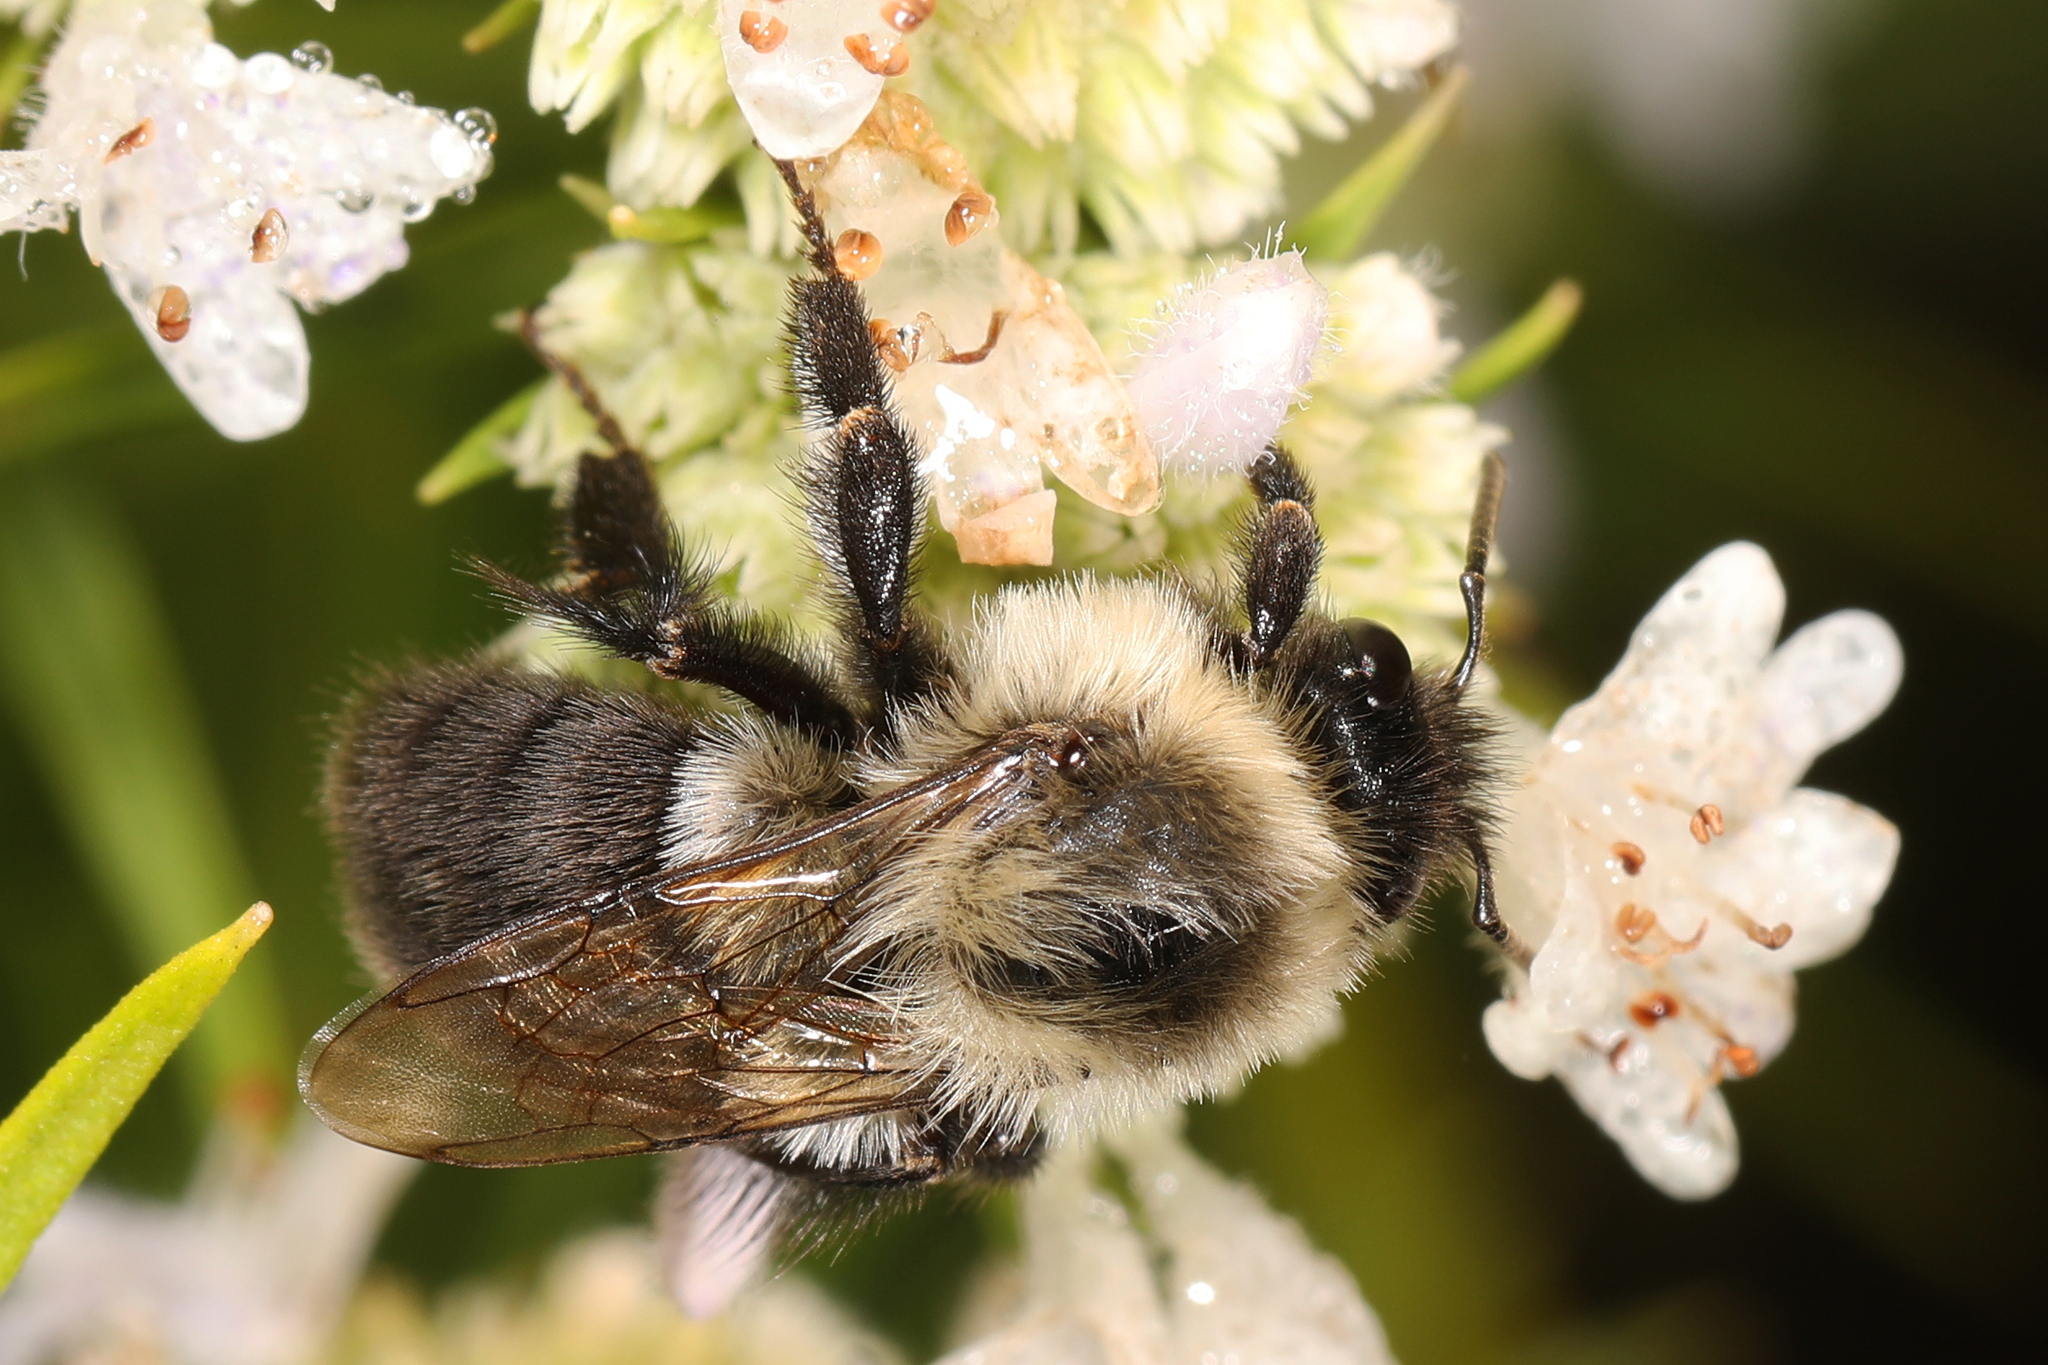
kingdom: Animalia
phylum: Arthropoda
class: Insecta
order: Hymenoptera
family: Apidae
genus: Bombus
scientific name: Bombus impatiens
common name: Common eastern bumble bee
